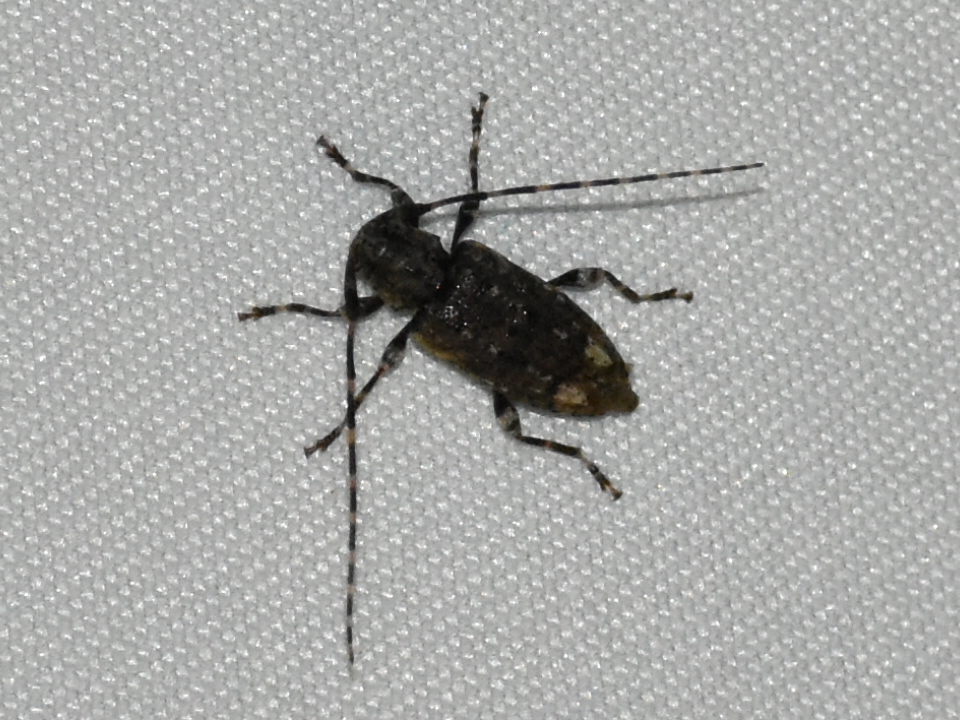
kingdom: Animalia
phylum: Arthropoda
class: Insecta
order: Coleoptera
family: Cerambycidae
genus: Astyleiopus
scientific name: Astyleiopus variegatus
